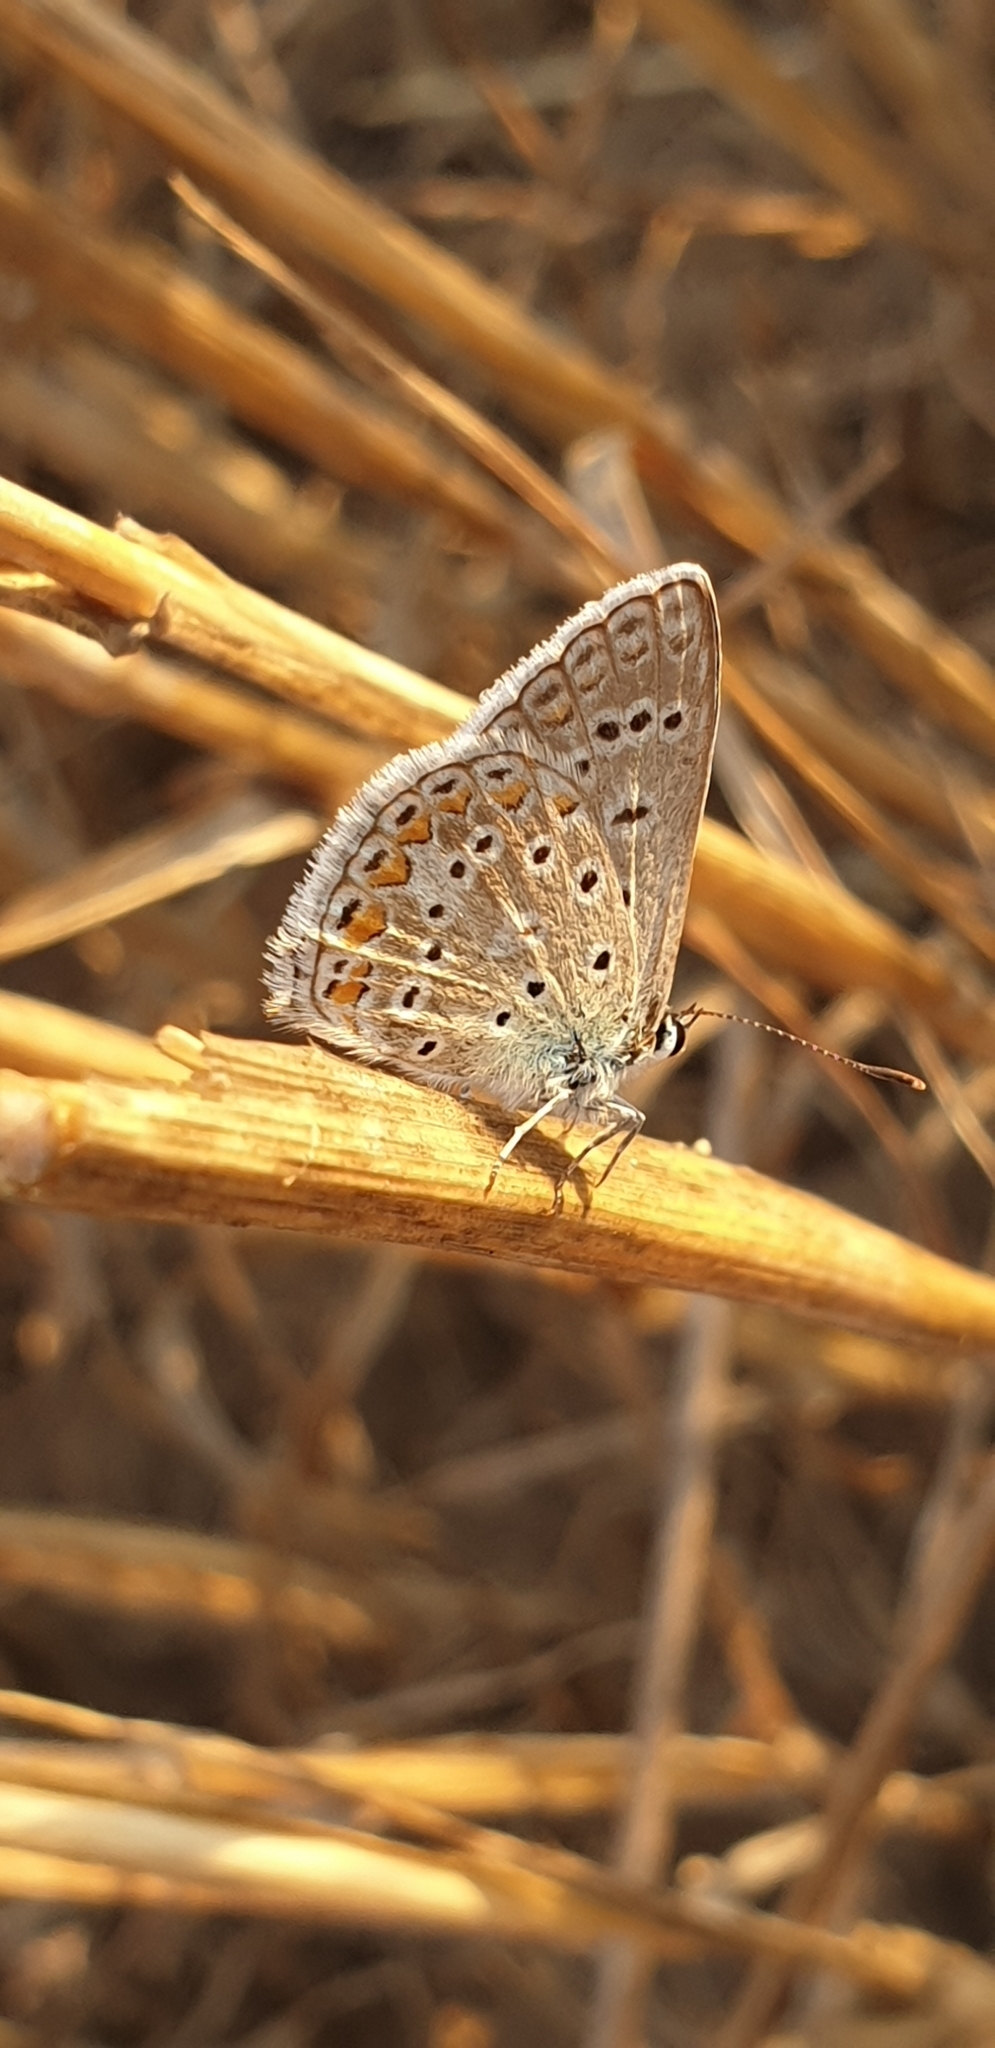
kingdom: Animalia
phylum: Arthropoda
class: Insecta
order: Lepidoptera
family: Lycaenidae
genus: Polyommatus
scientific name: Polyommatus icarus
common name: Common blue
